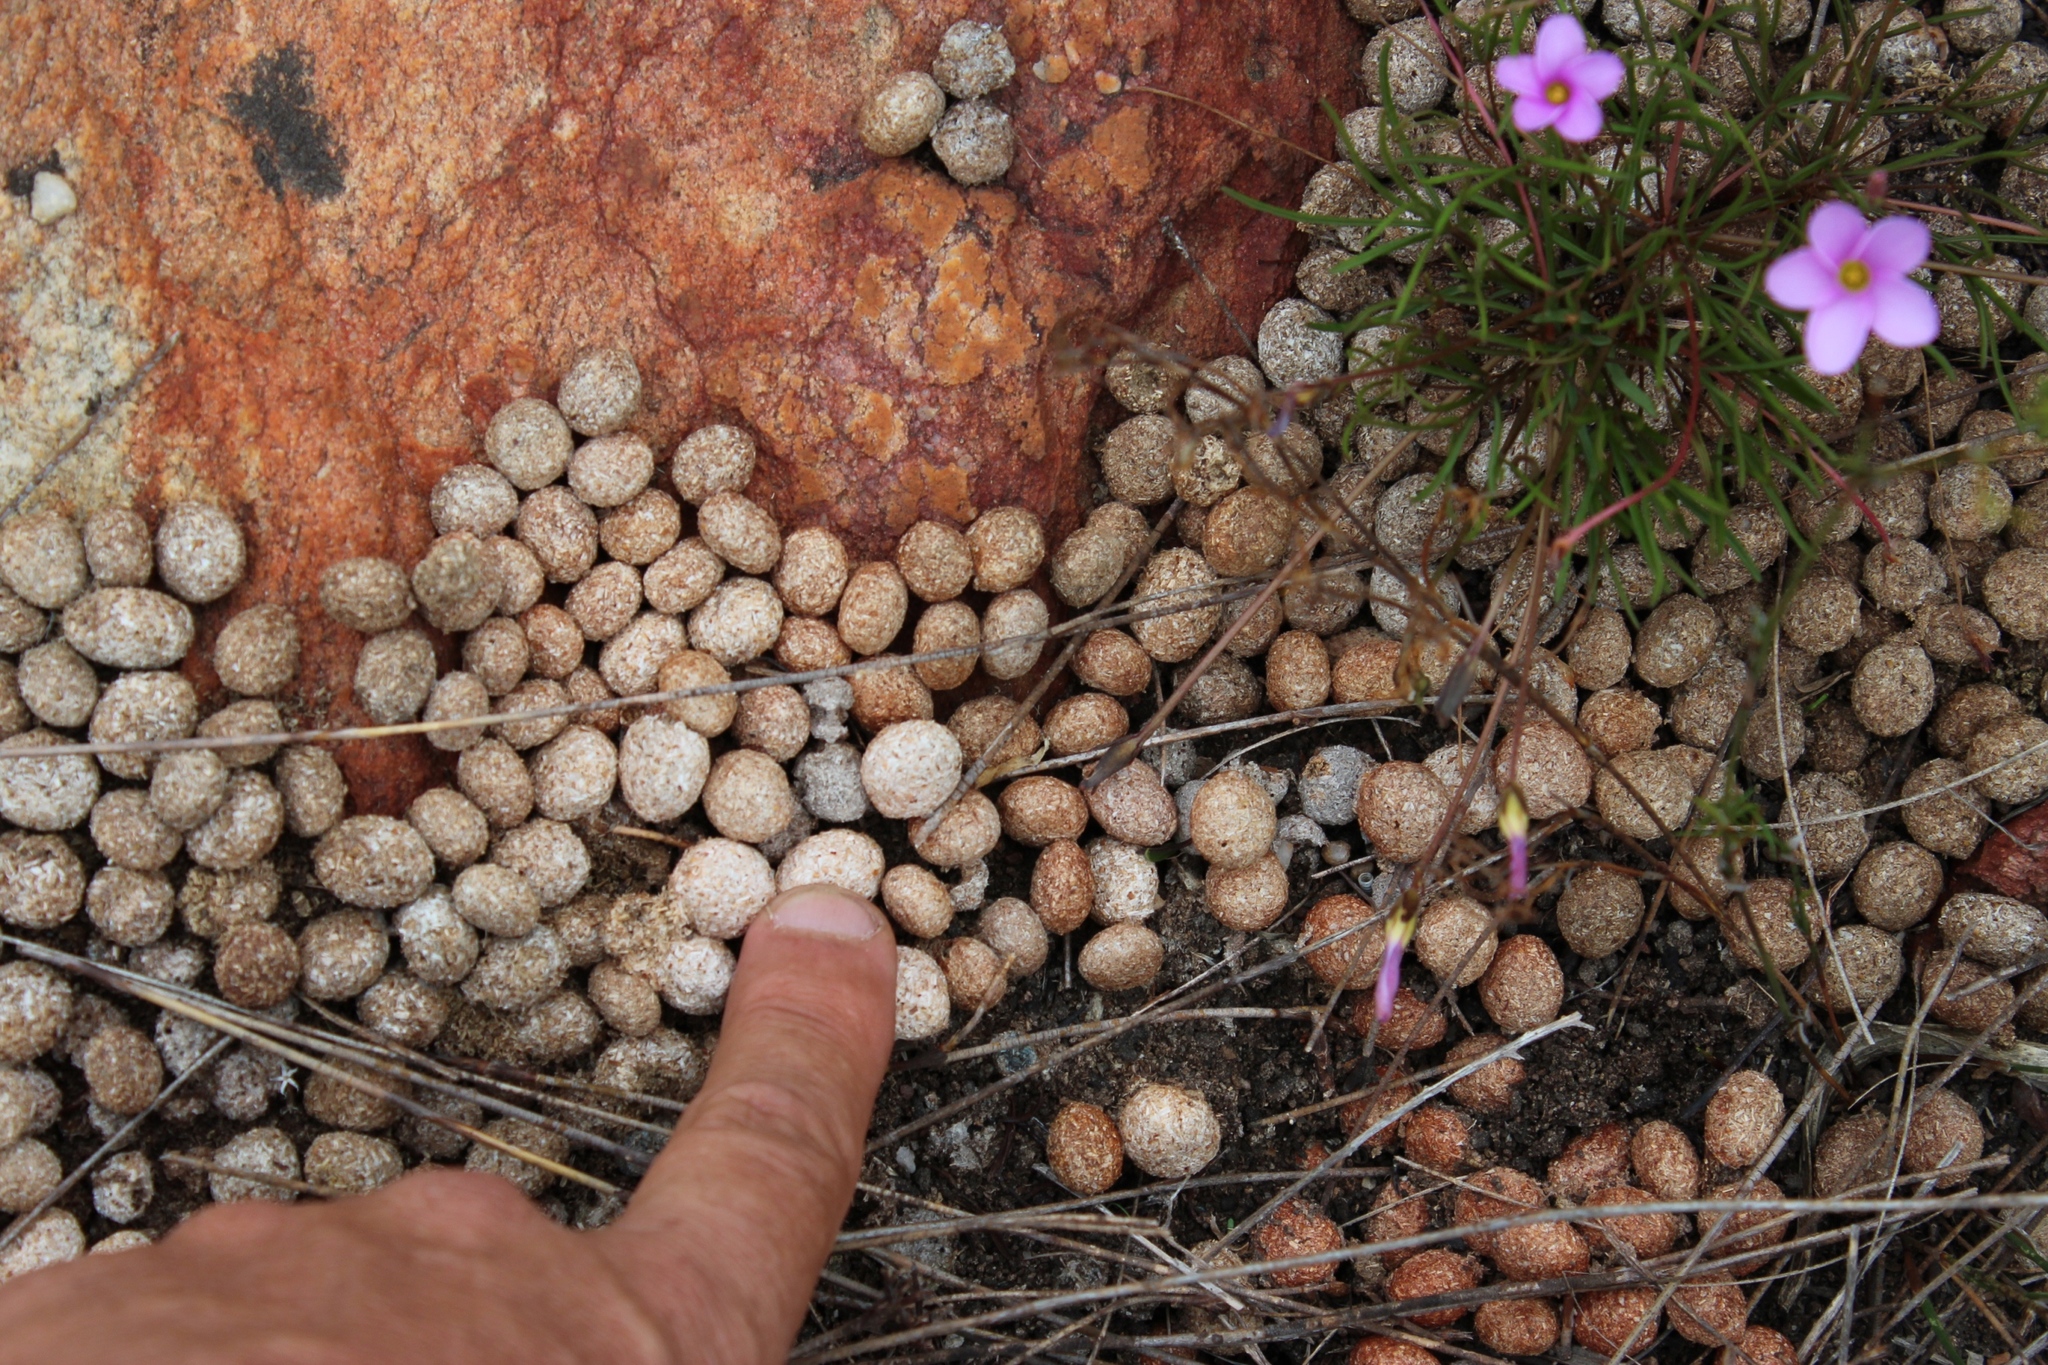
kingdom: Animalia
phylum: Chordata
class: Mammalia
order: Lagomorpha
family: Leporidae
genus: Pronolagus
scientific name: Pronolagus saundersiae
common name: Hewitt's red rock hare
